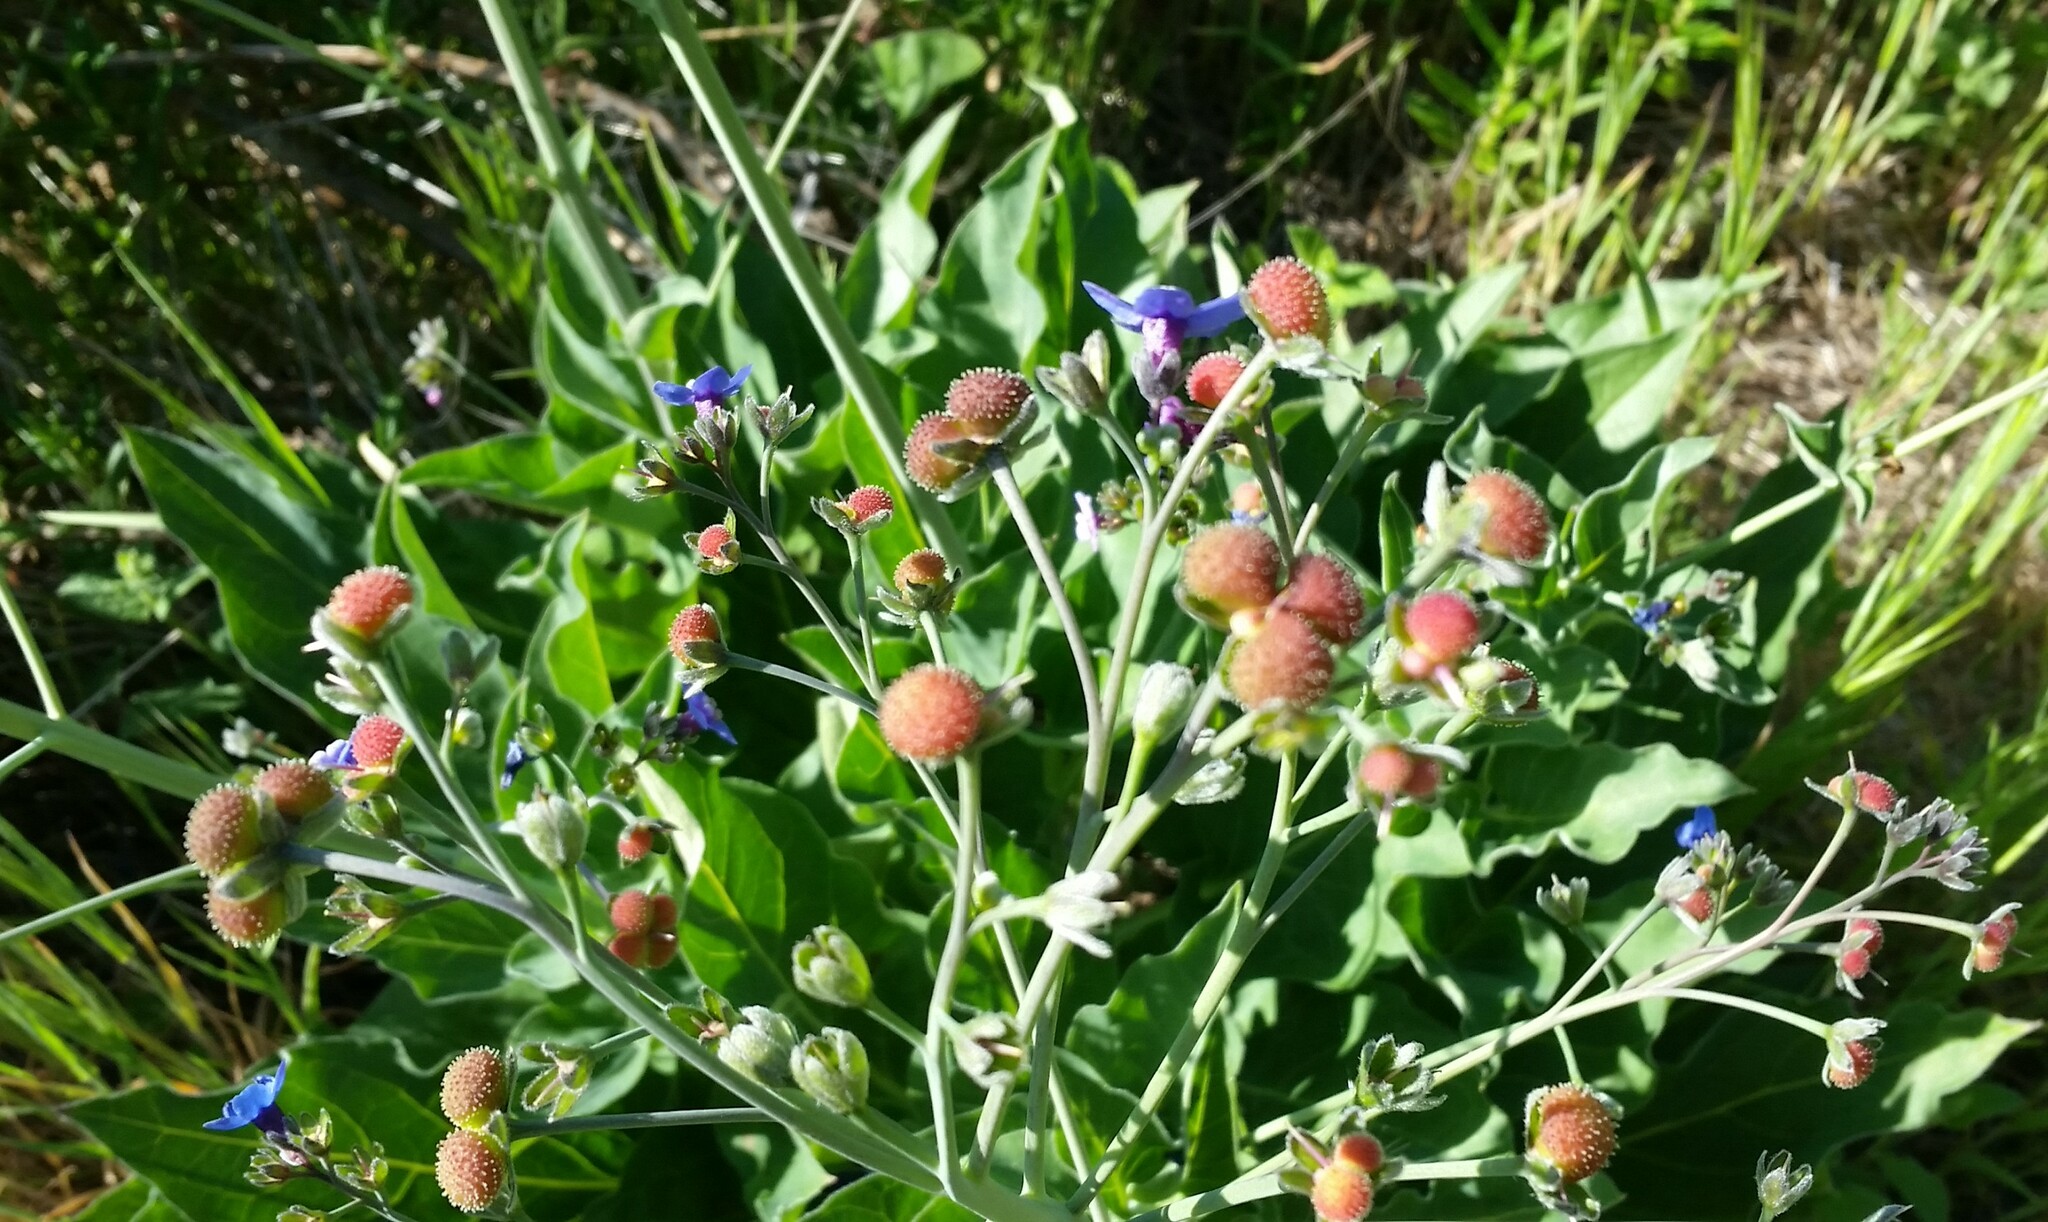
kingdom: Plantae
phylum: Tracheophyta
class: Magnoliopsida
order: Boraginales
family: Boraginaceae
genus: Adelinia
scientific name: Adelinia grande
